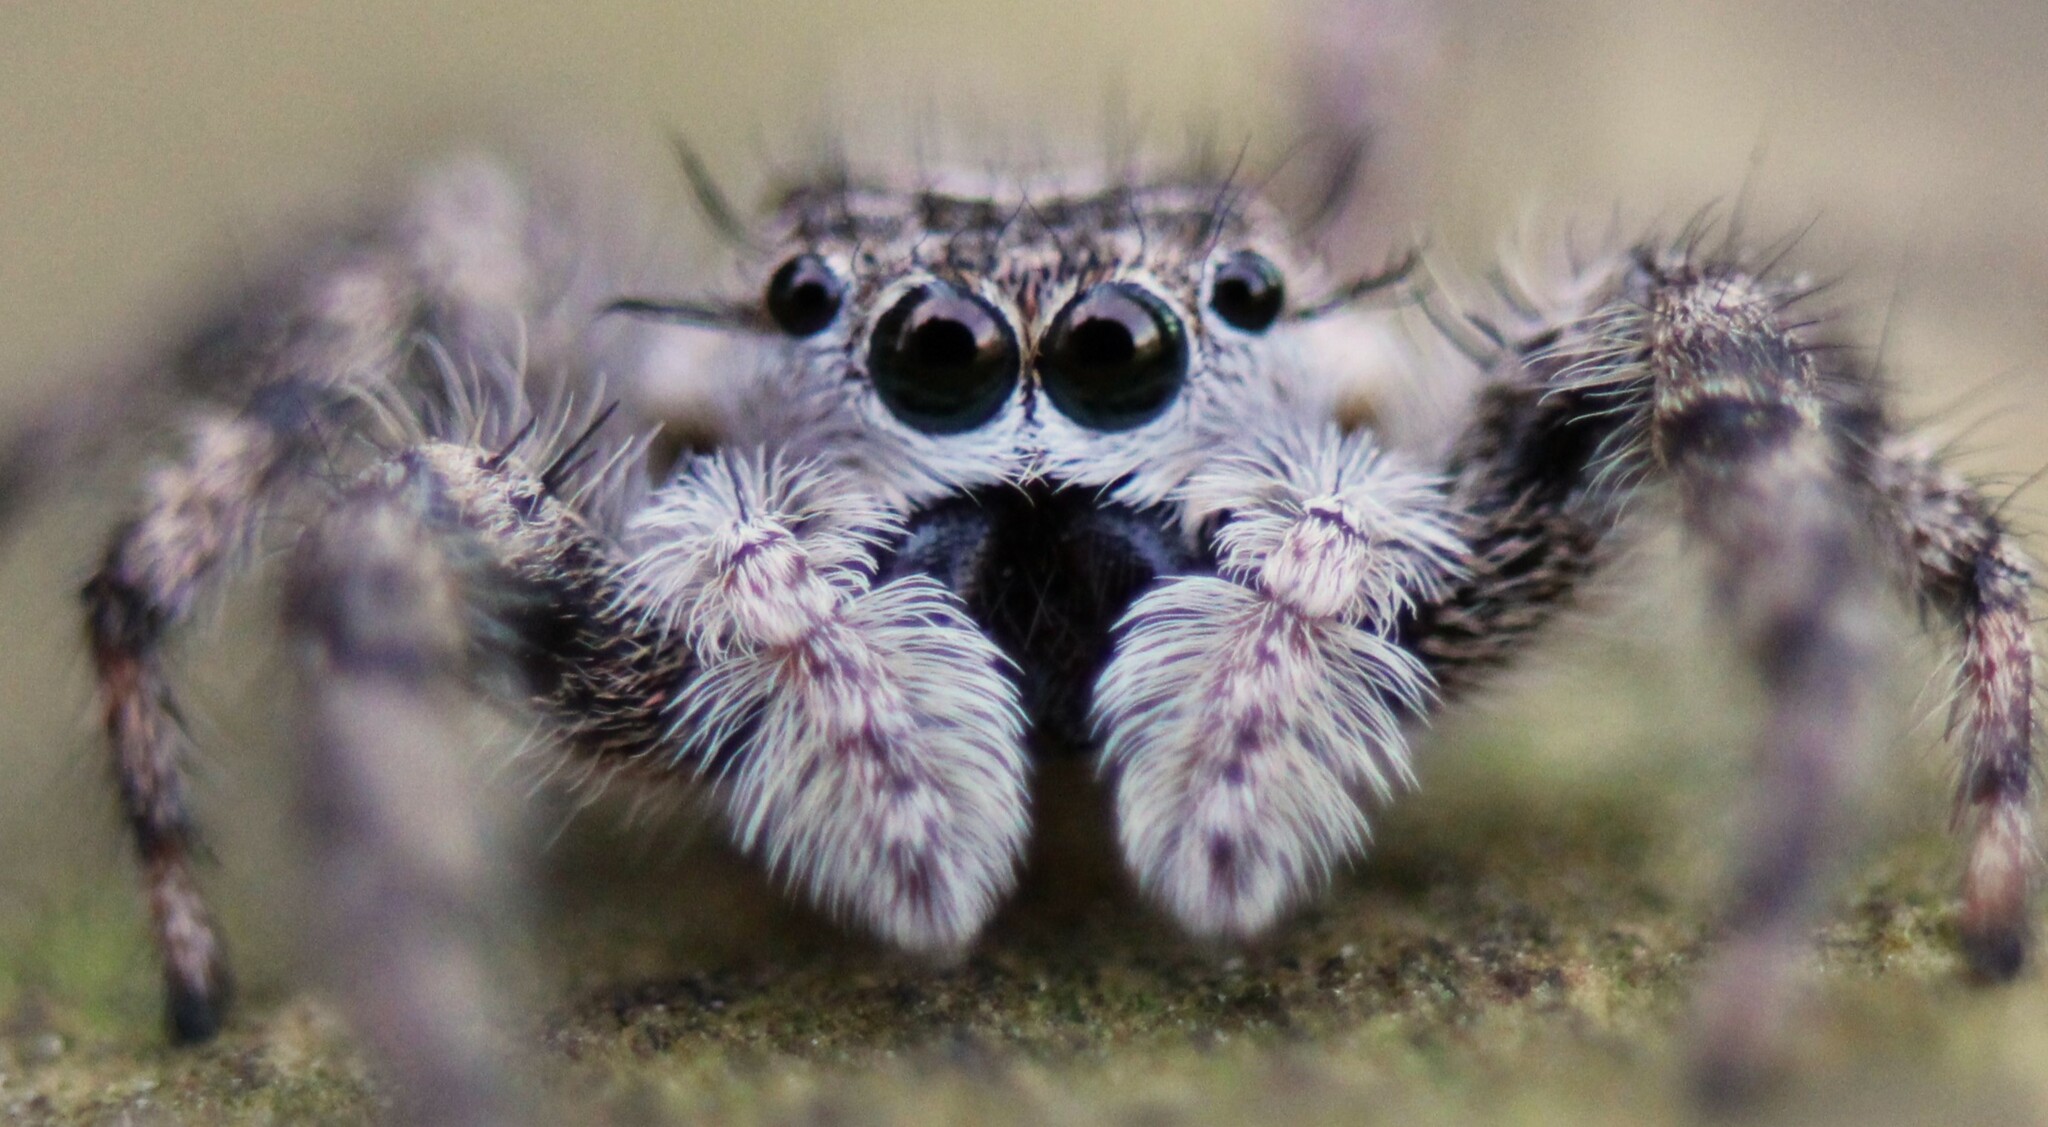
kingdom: Animalia
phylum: Arthropoda
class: Arachnida
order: Araneae
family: Salticidae
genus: Platycryptus
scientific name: Platycryptus undatus
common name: Tan jumping spider
